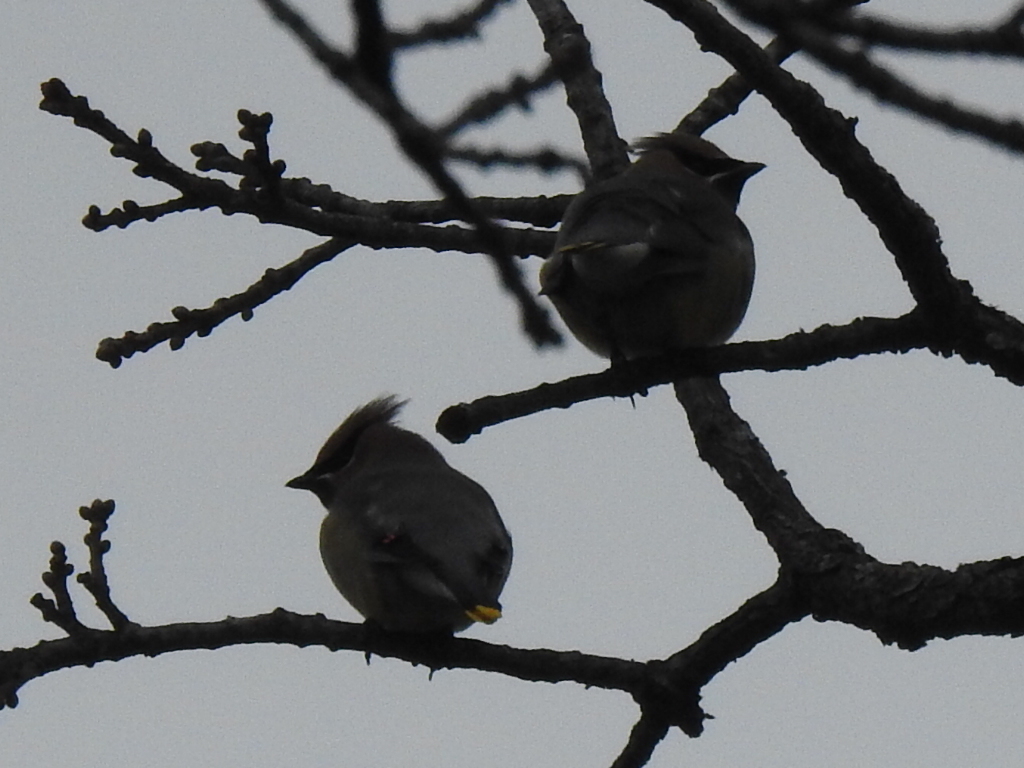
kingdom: Animalia
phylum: Chordata
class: Aves
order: Passeriformes
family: Bombycillidae
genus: Bombycilla
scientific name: Bombycilla cedrorum
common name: Cedar waxwing
